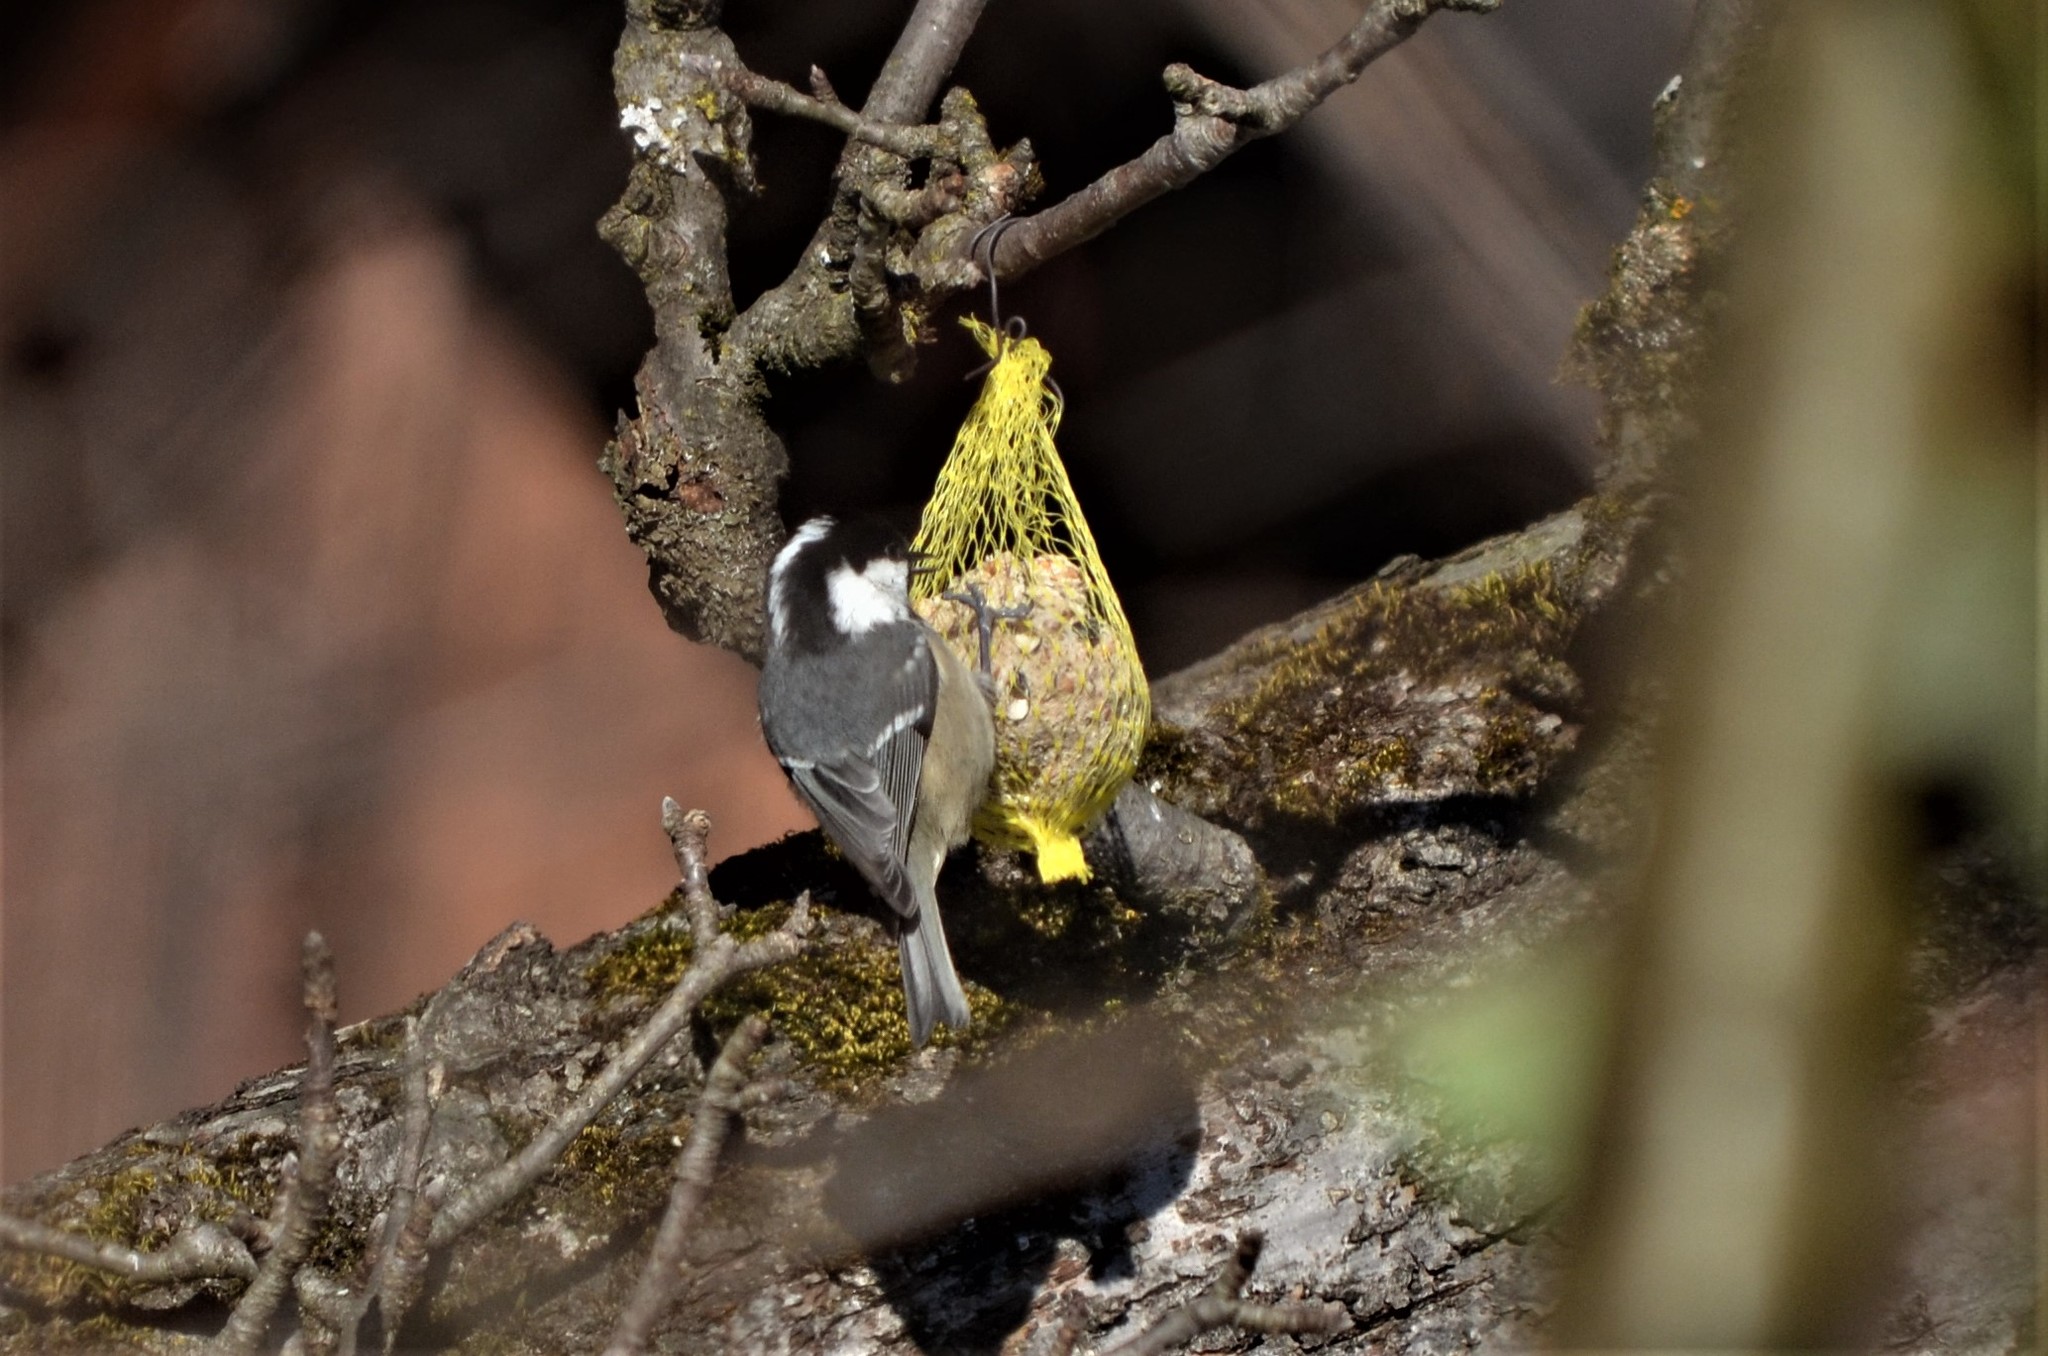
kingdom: Animalia
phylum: Chordata
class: Aves
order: Passeriformes
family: Paridae
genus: Periparus
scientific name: Periparus ater
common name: Coal tit
